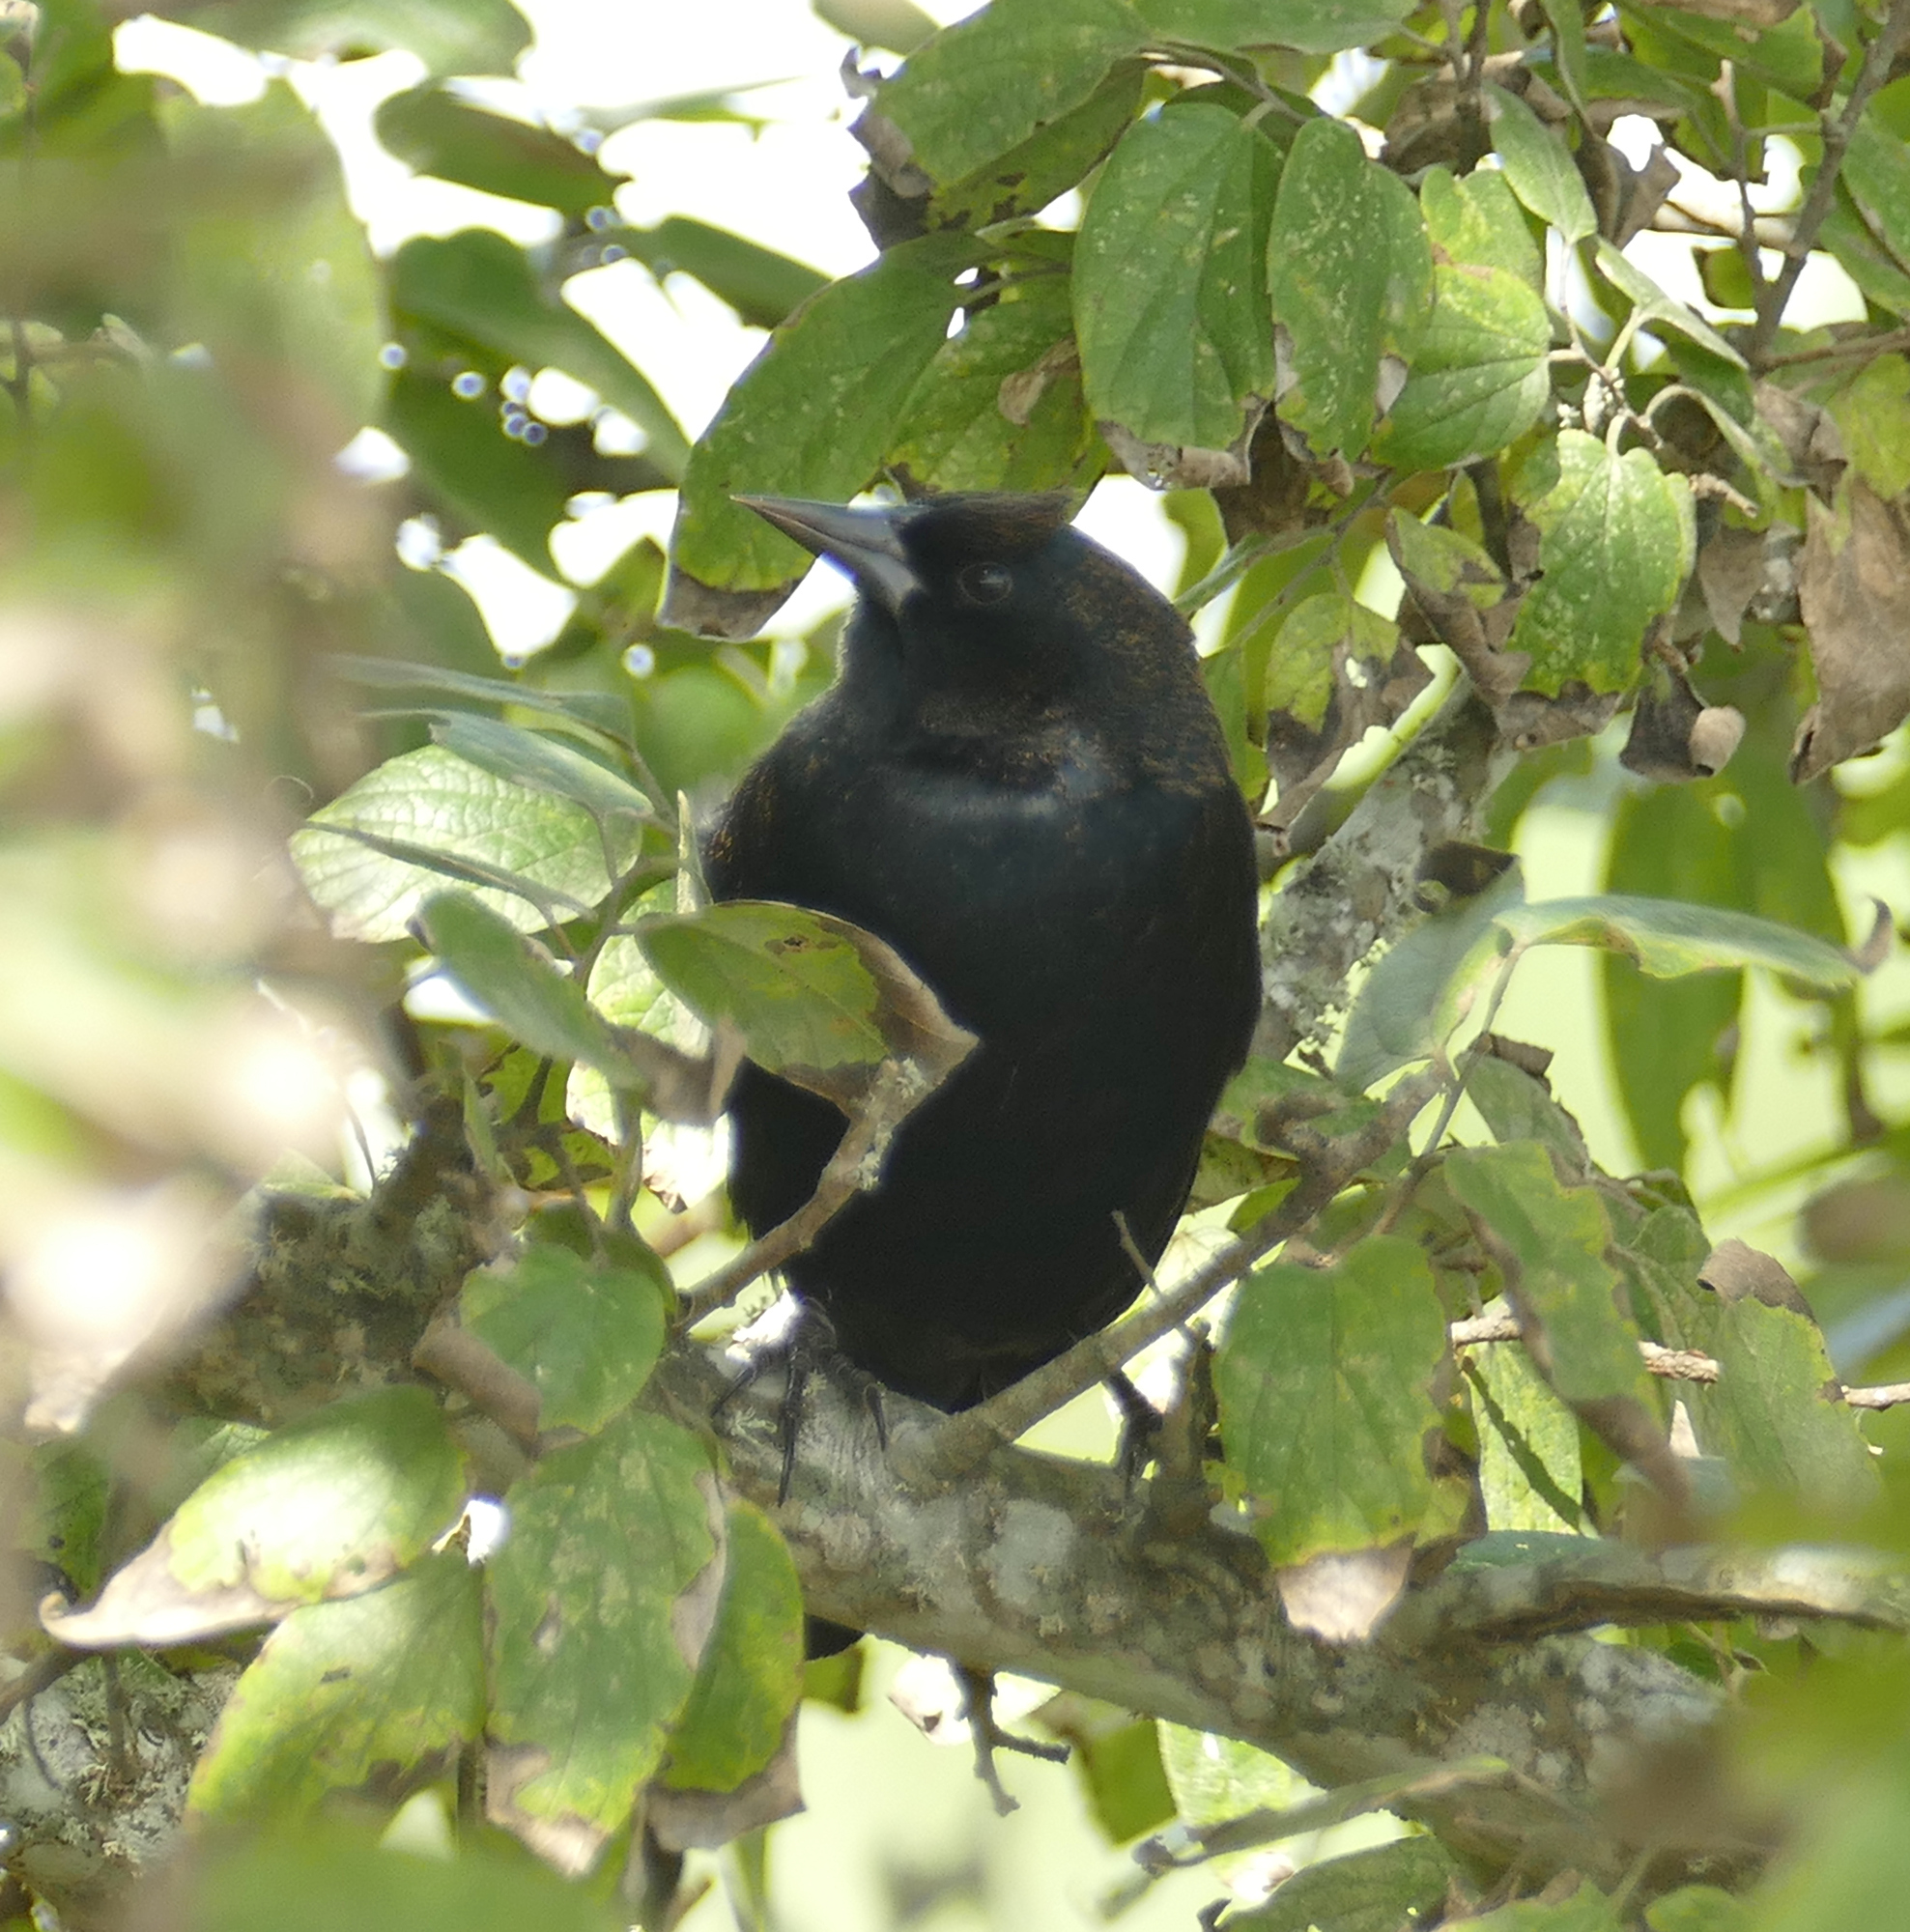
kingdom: Animalia
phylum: Chordata
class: Aves
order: Passeriformes
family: Icteridae
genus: Agelaius
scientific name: Agelaius phoeniceus
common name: Red-winged blackbird
